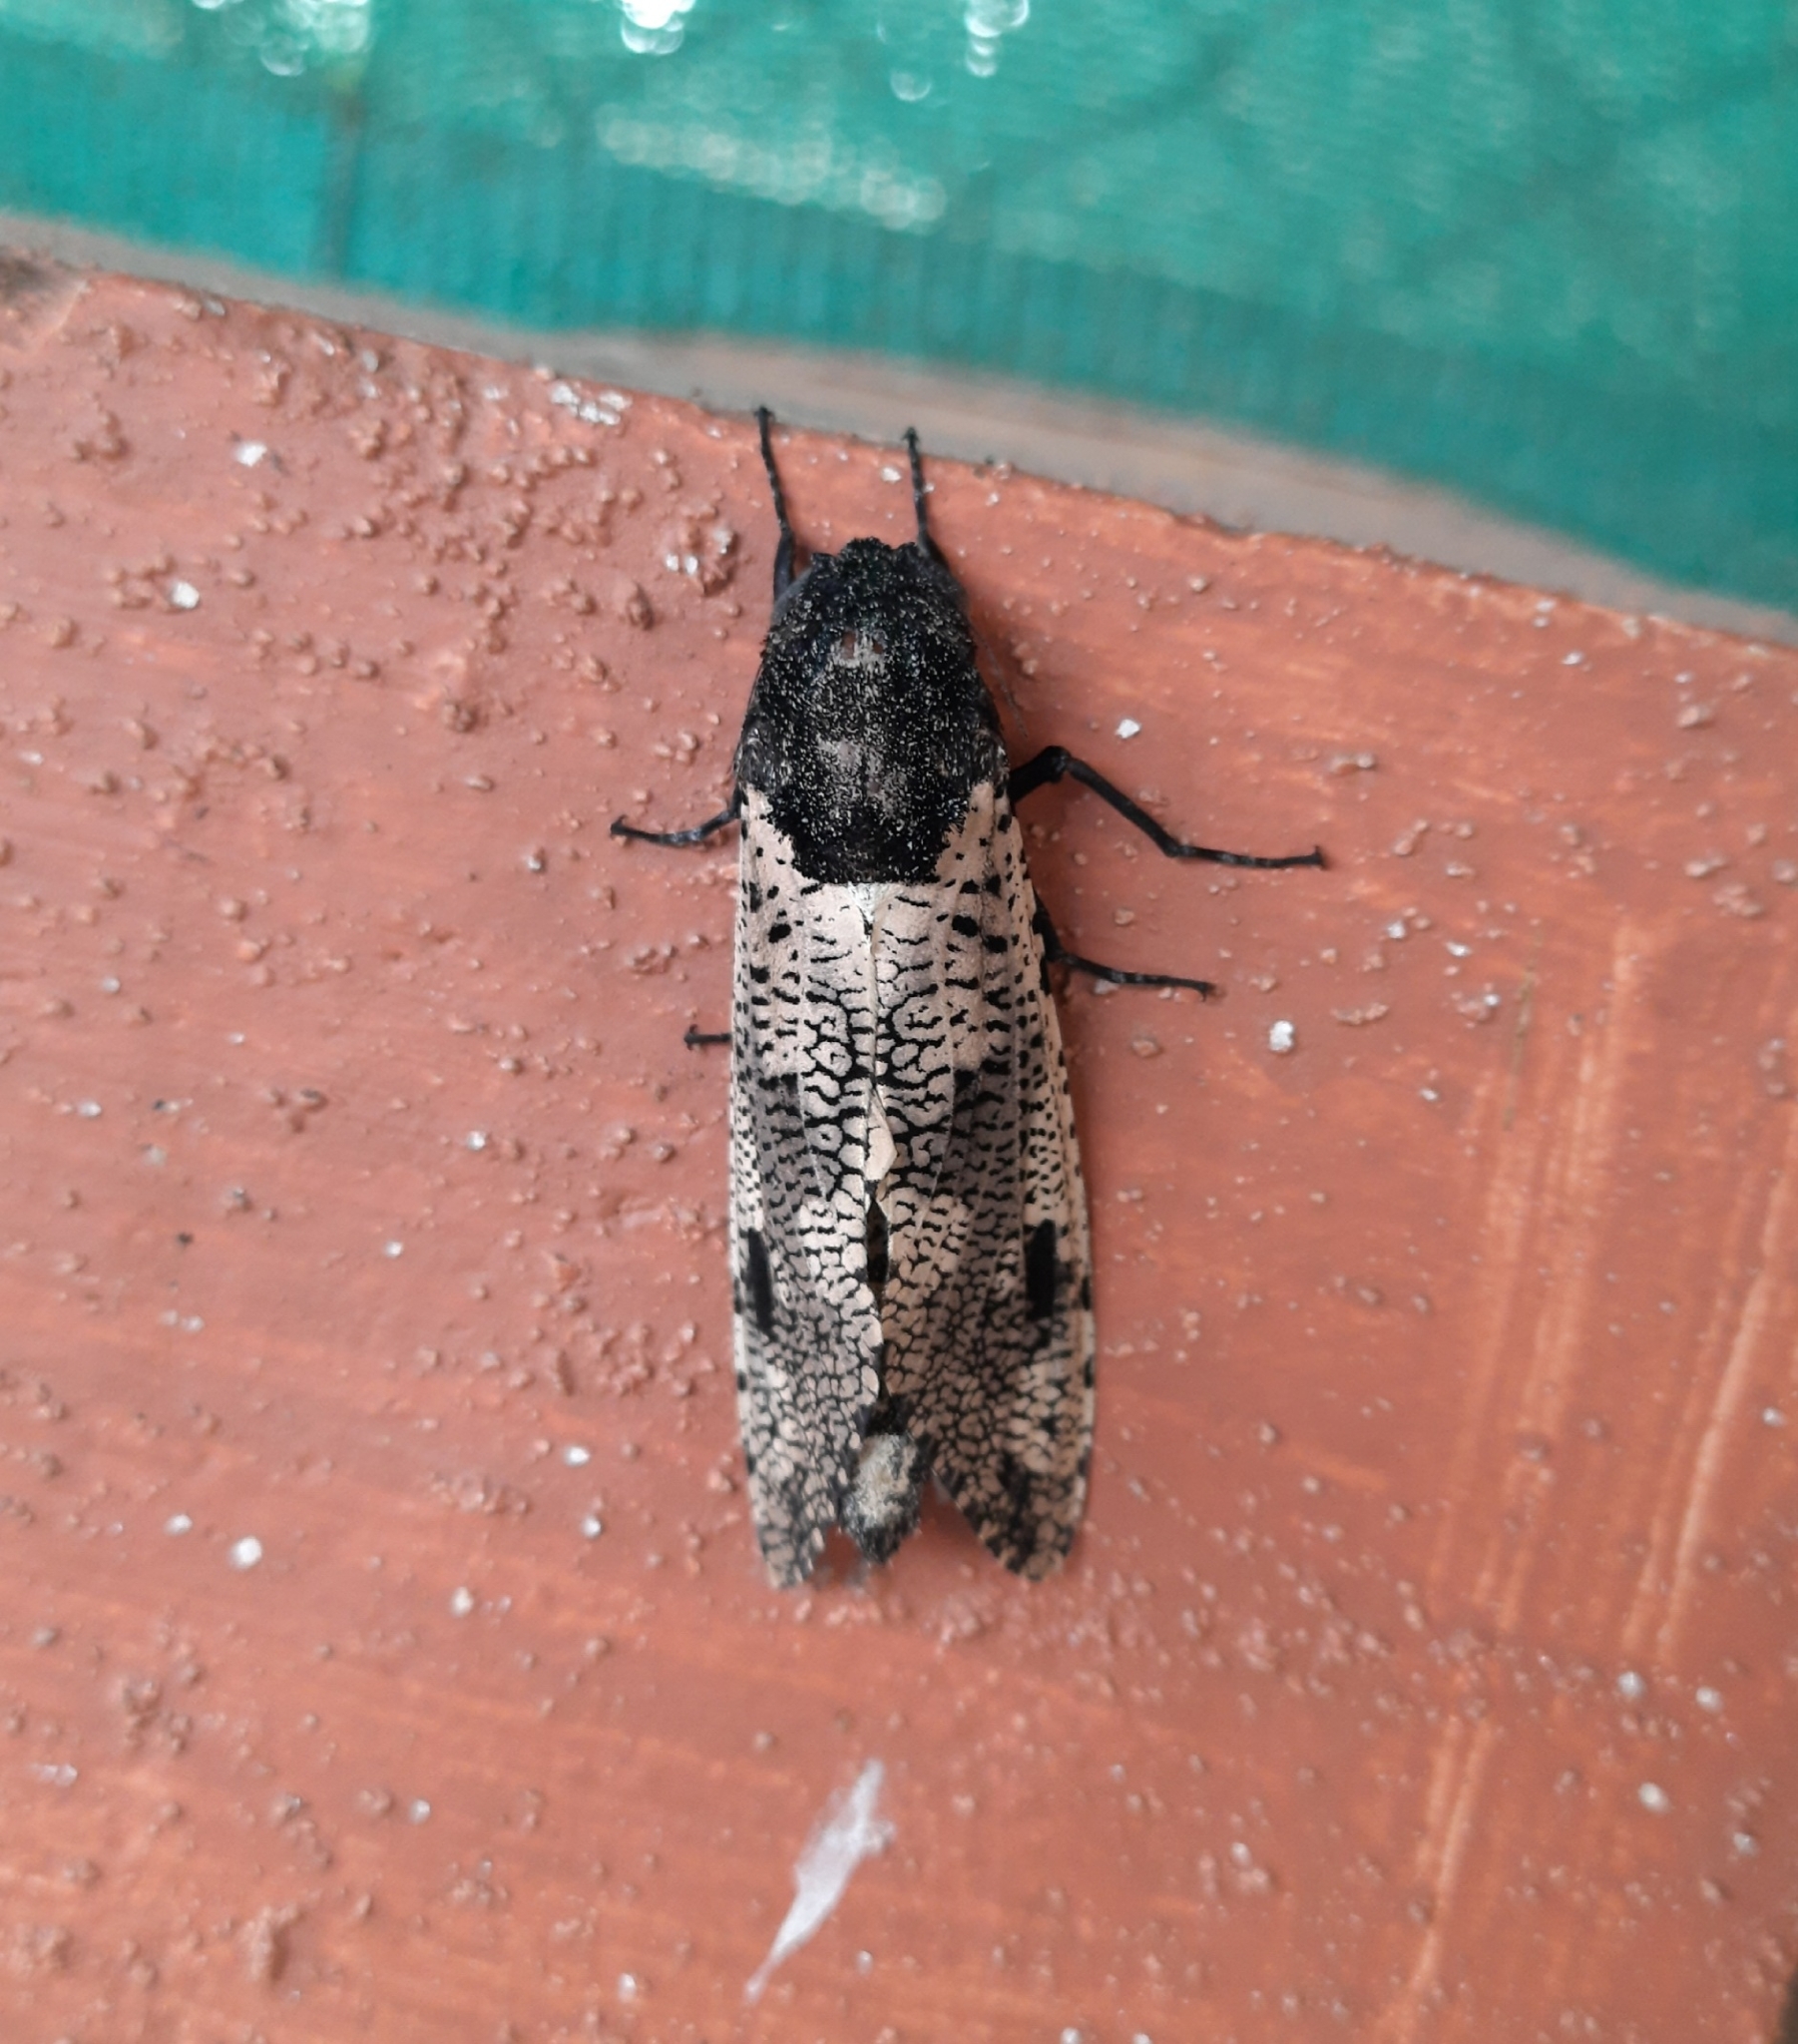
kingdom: Animalia
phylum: Arthropoda
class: Insecta
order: Lepidoptera
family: Cossidae
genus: Xyleutes
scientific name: Xyleutes strix
